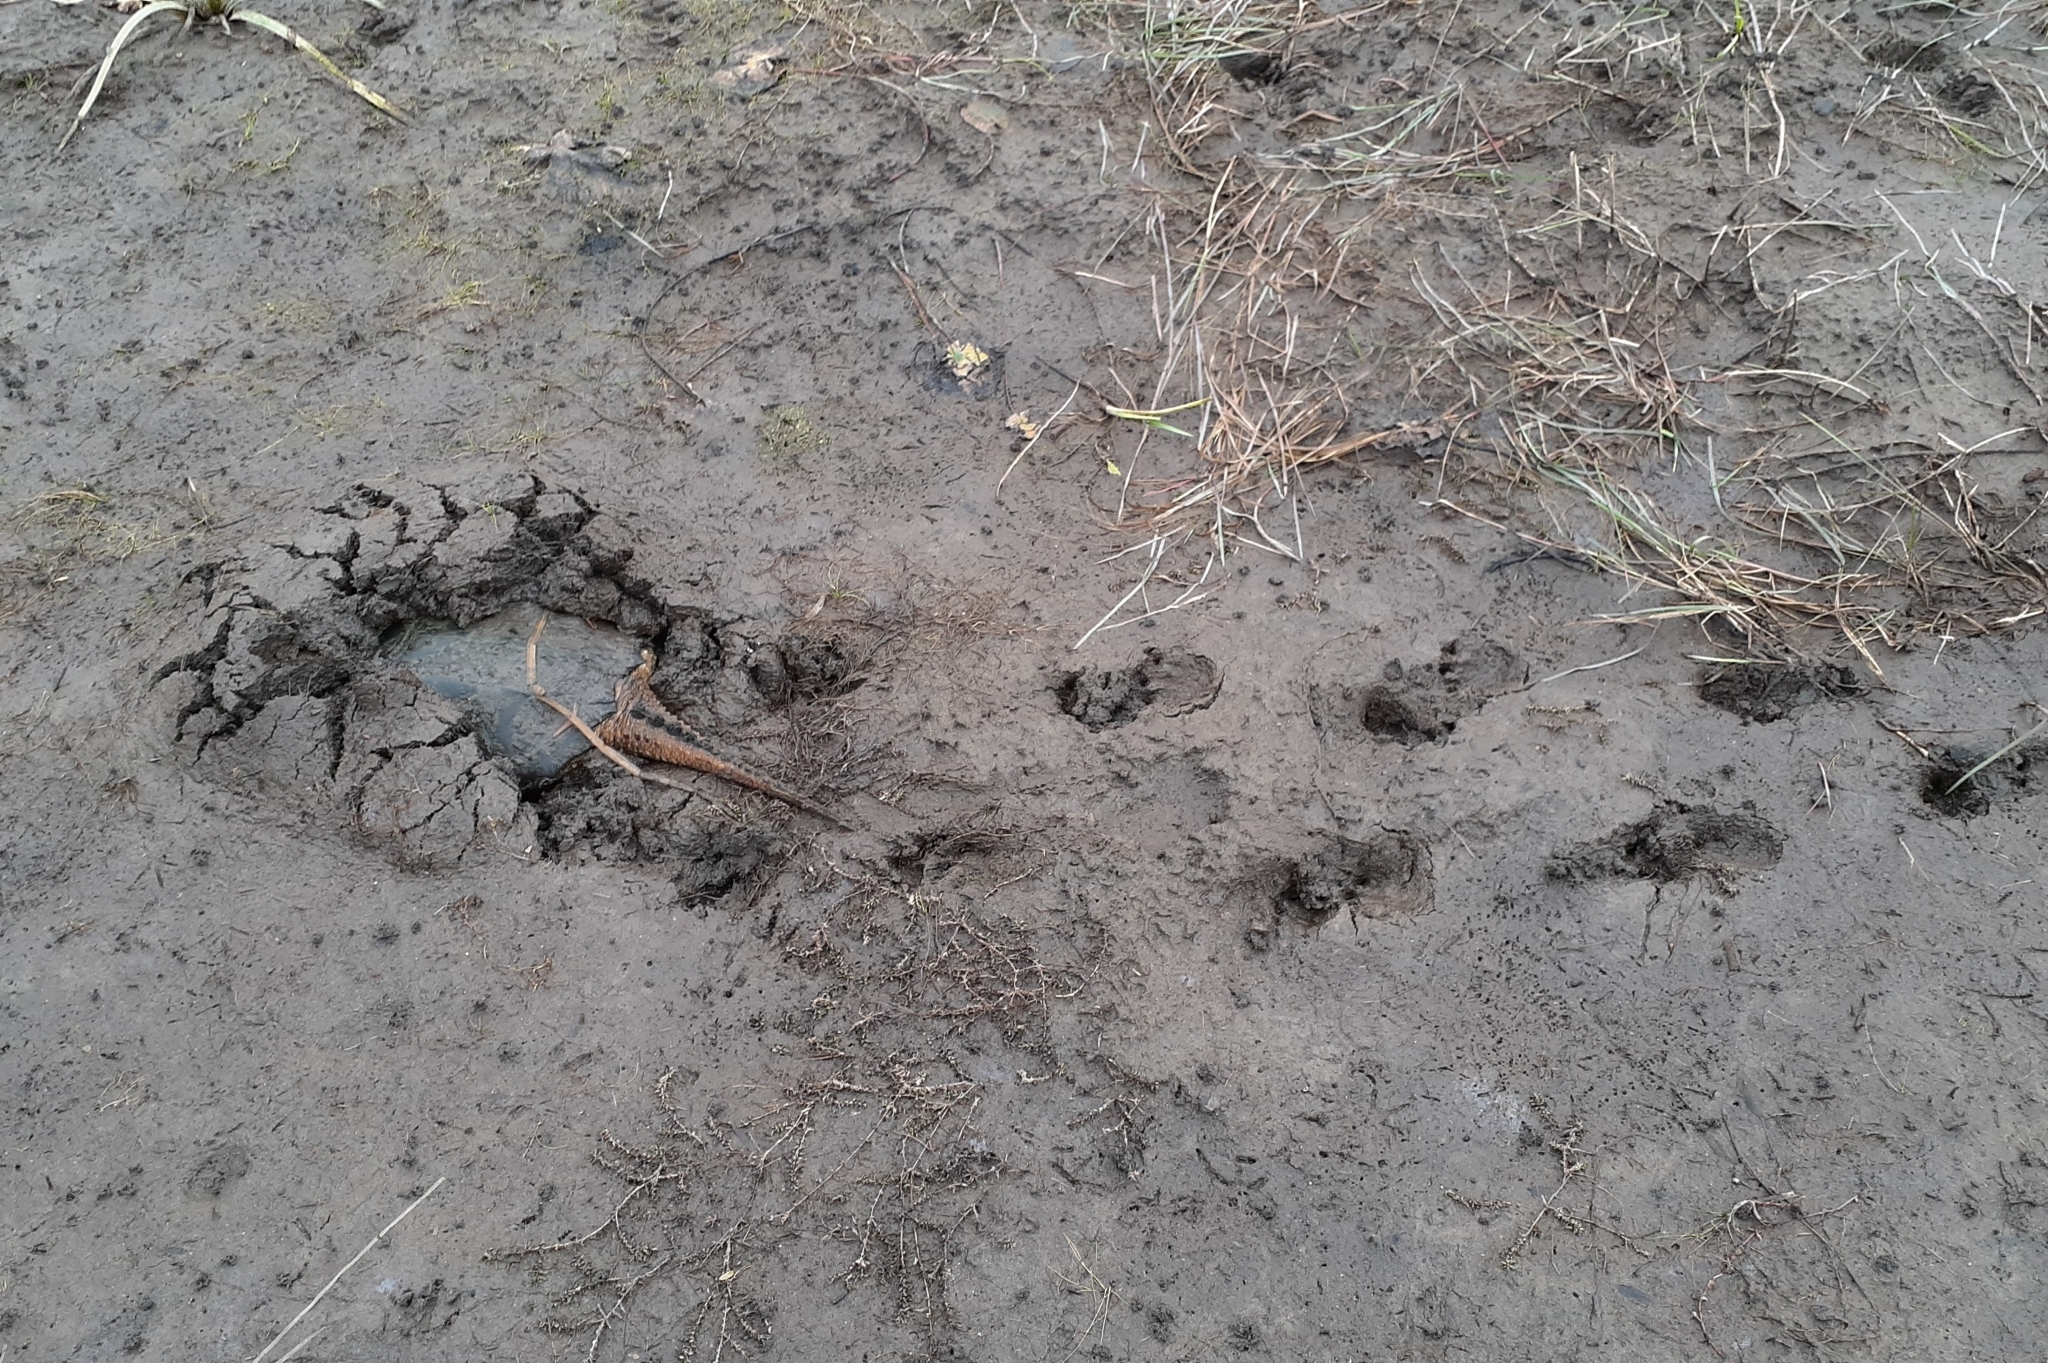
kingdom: Animalia
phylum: Chordata
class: Testudines
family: Chelydridae
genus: Chelydra
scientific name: Chelydra serpentina
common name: Common snapping turtle
